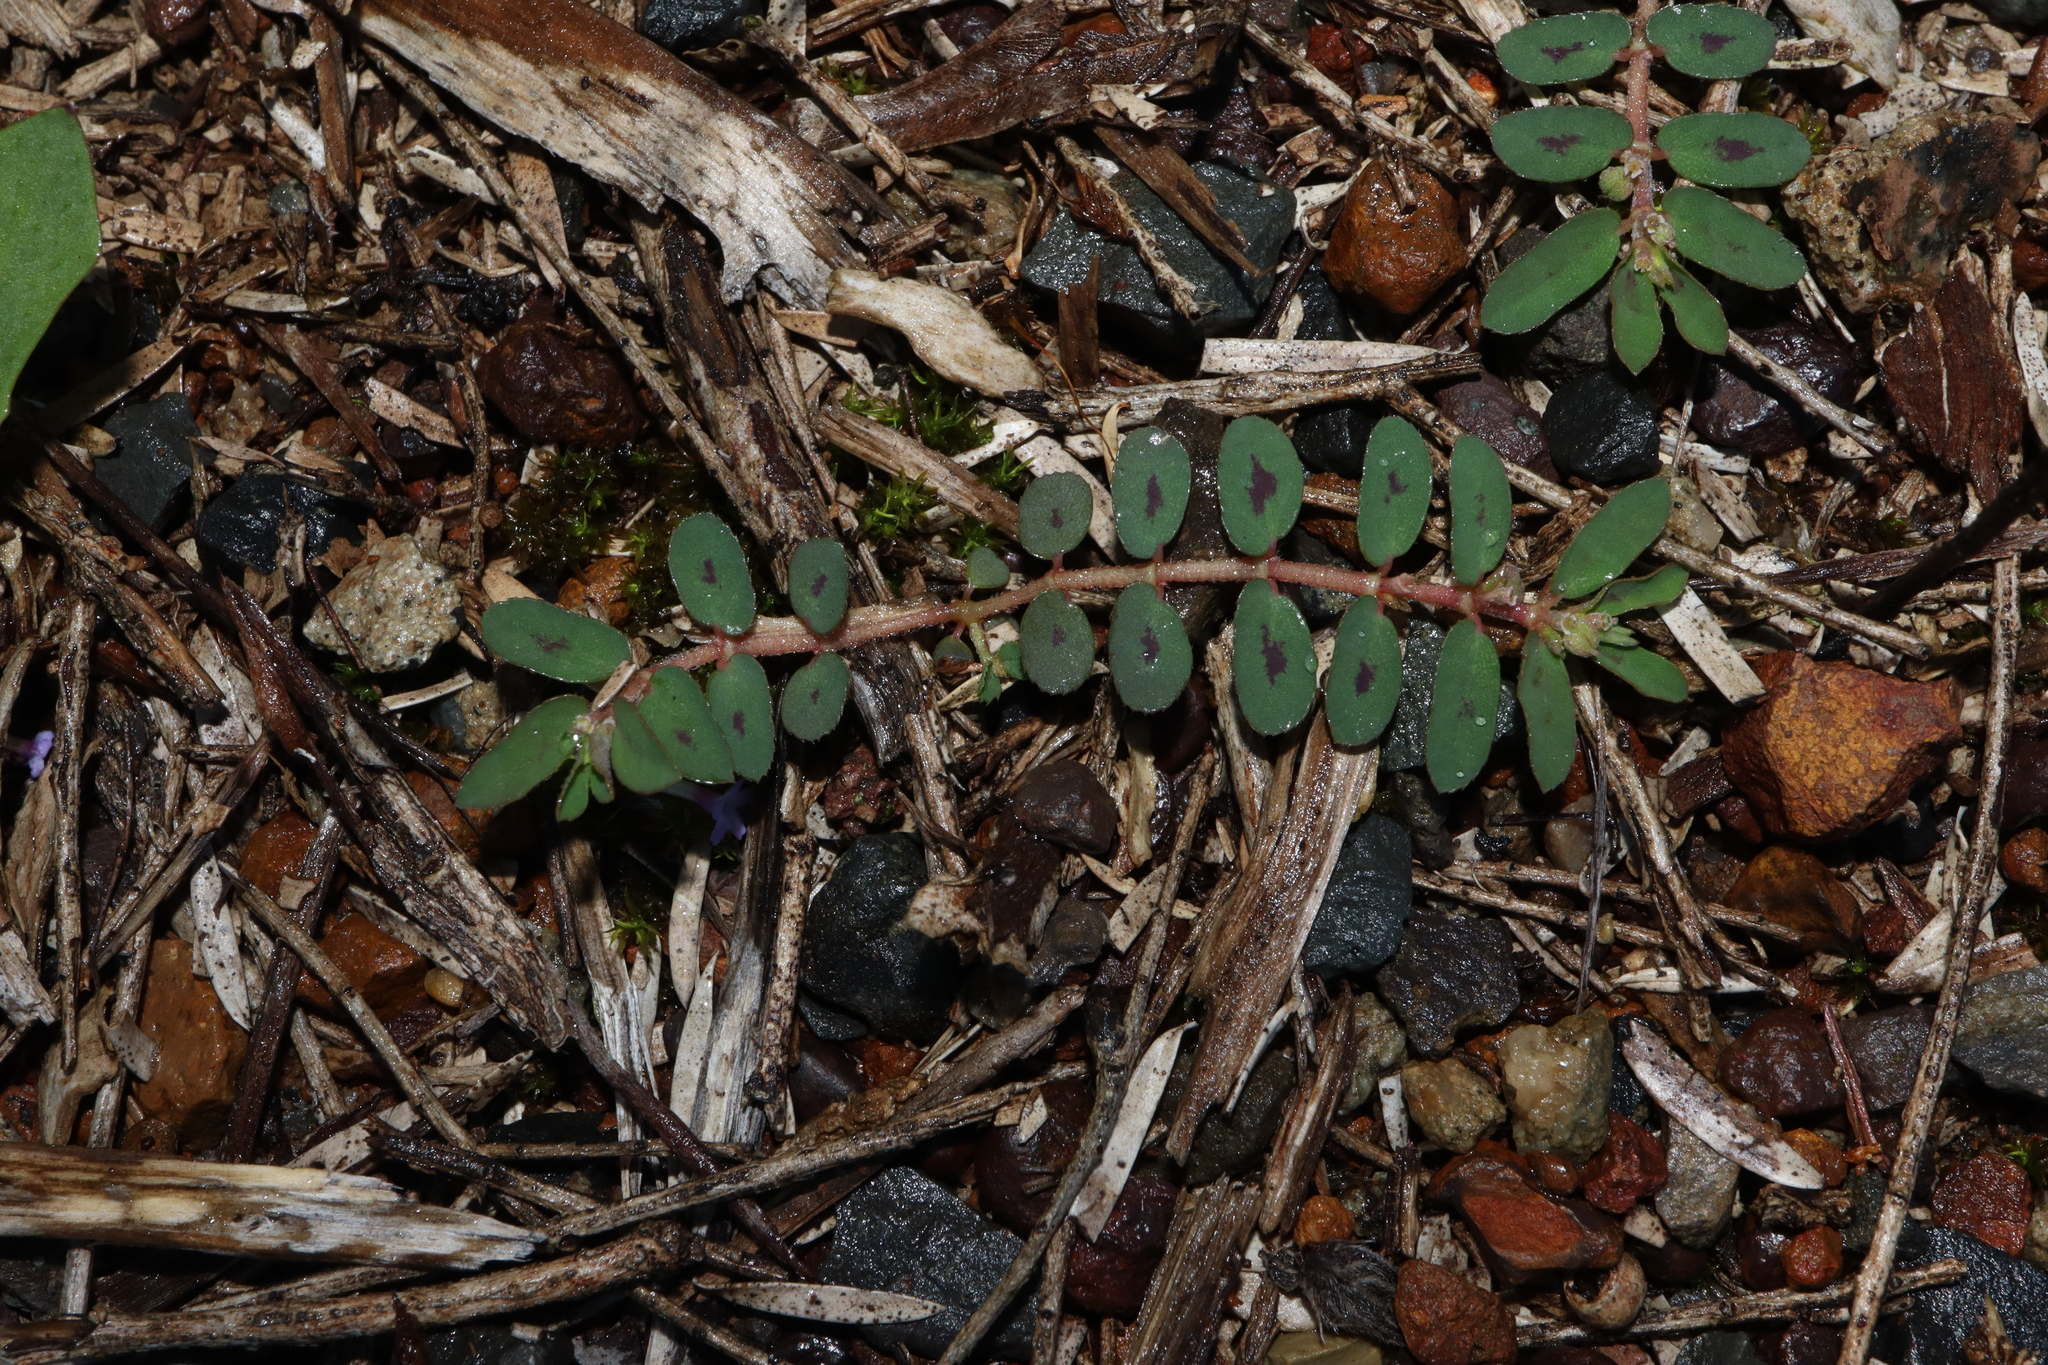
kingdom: Plantae
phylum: Tracheophyta
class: Magnoliopsida
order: Malpighiales
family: Euphorbiaceae
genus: Euphorbia
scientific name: Euphorbia maculata
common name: Spotted spurge
